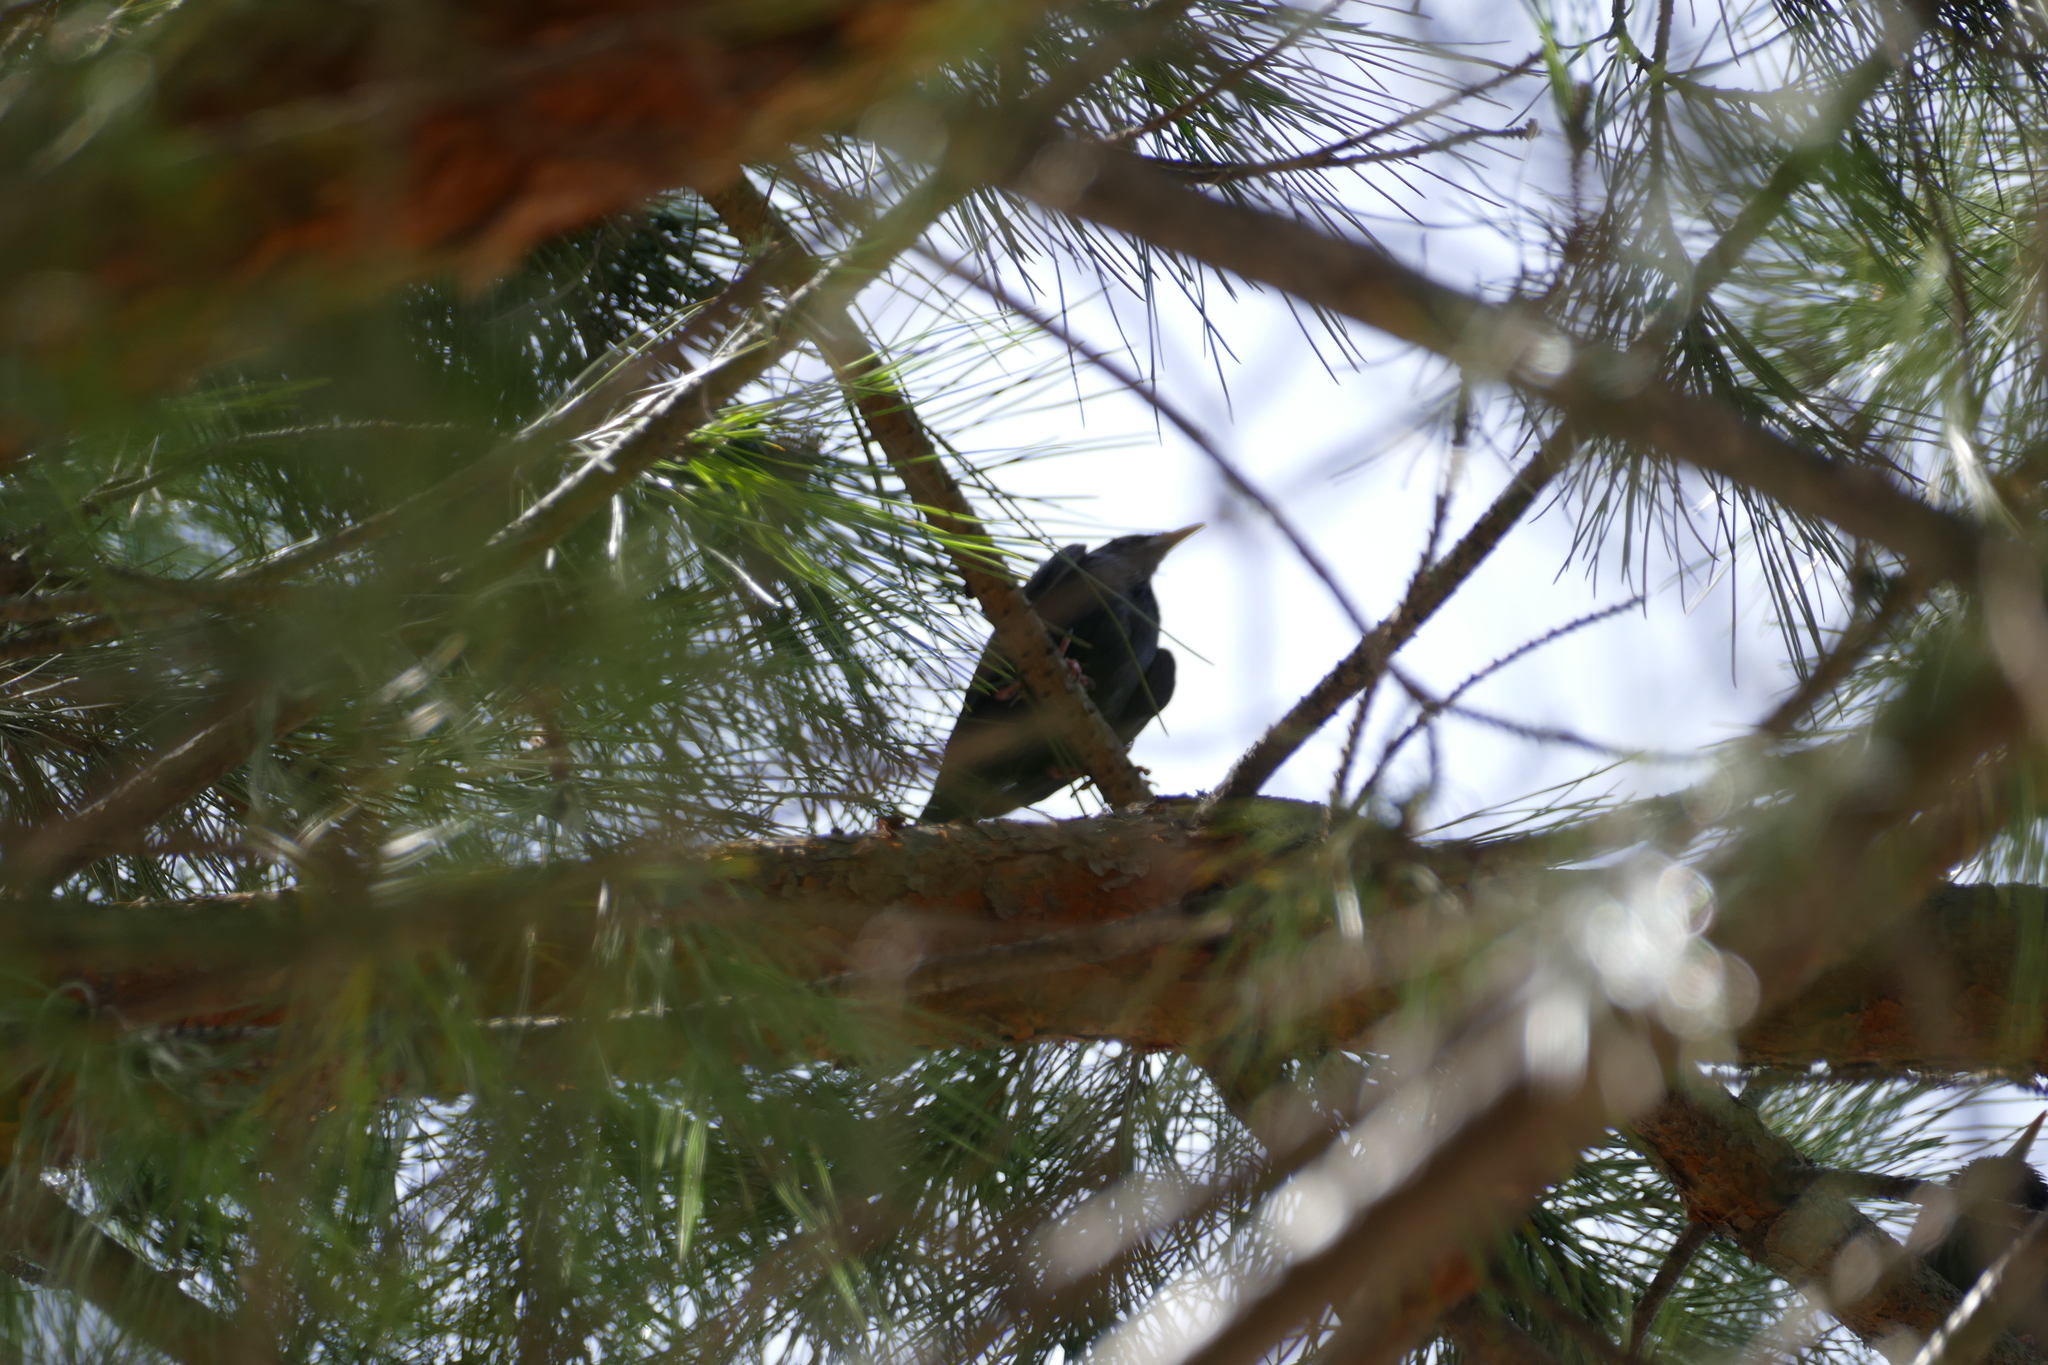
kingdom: Animalia
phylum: Chordata
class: Aves
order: Passeriformes
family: Sturnidae
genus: Sturnus
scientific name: Sturnus unicolor
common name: Spotless starling
